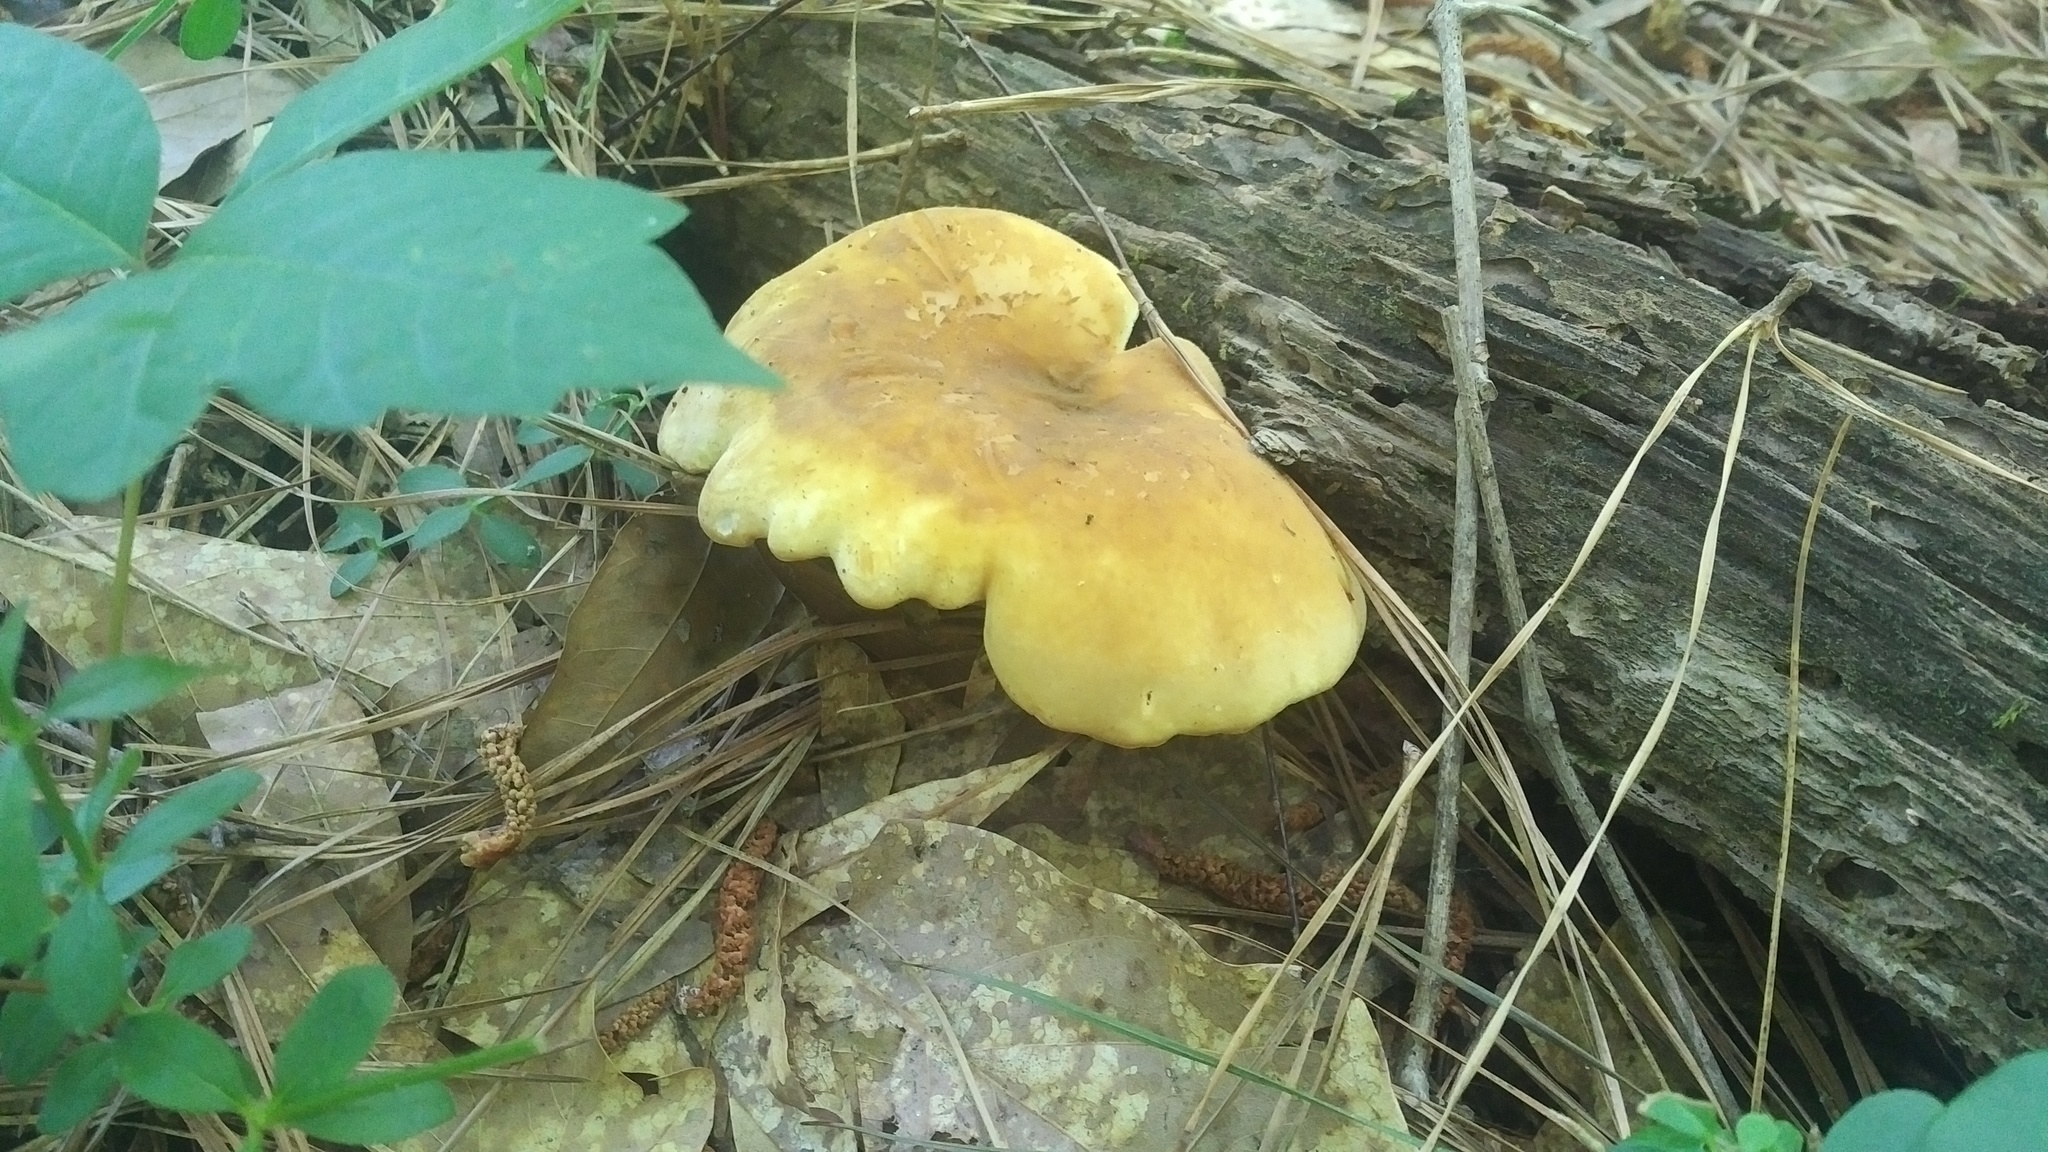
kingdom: Fungi
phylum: Basidiomycota
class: Agaricomycetes
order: Boletales
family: Tapinellaceae
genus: Tapinella
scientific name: Tapinella atrotomentosa
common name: Velvet rollrim
